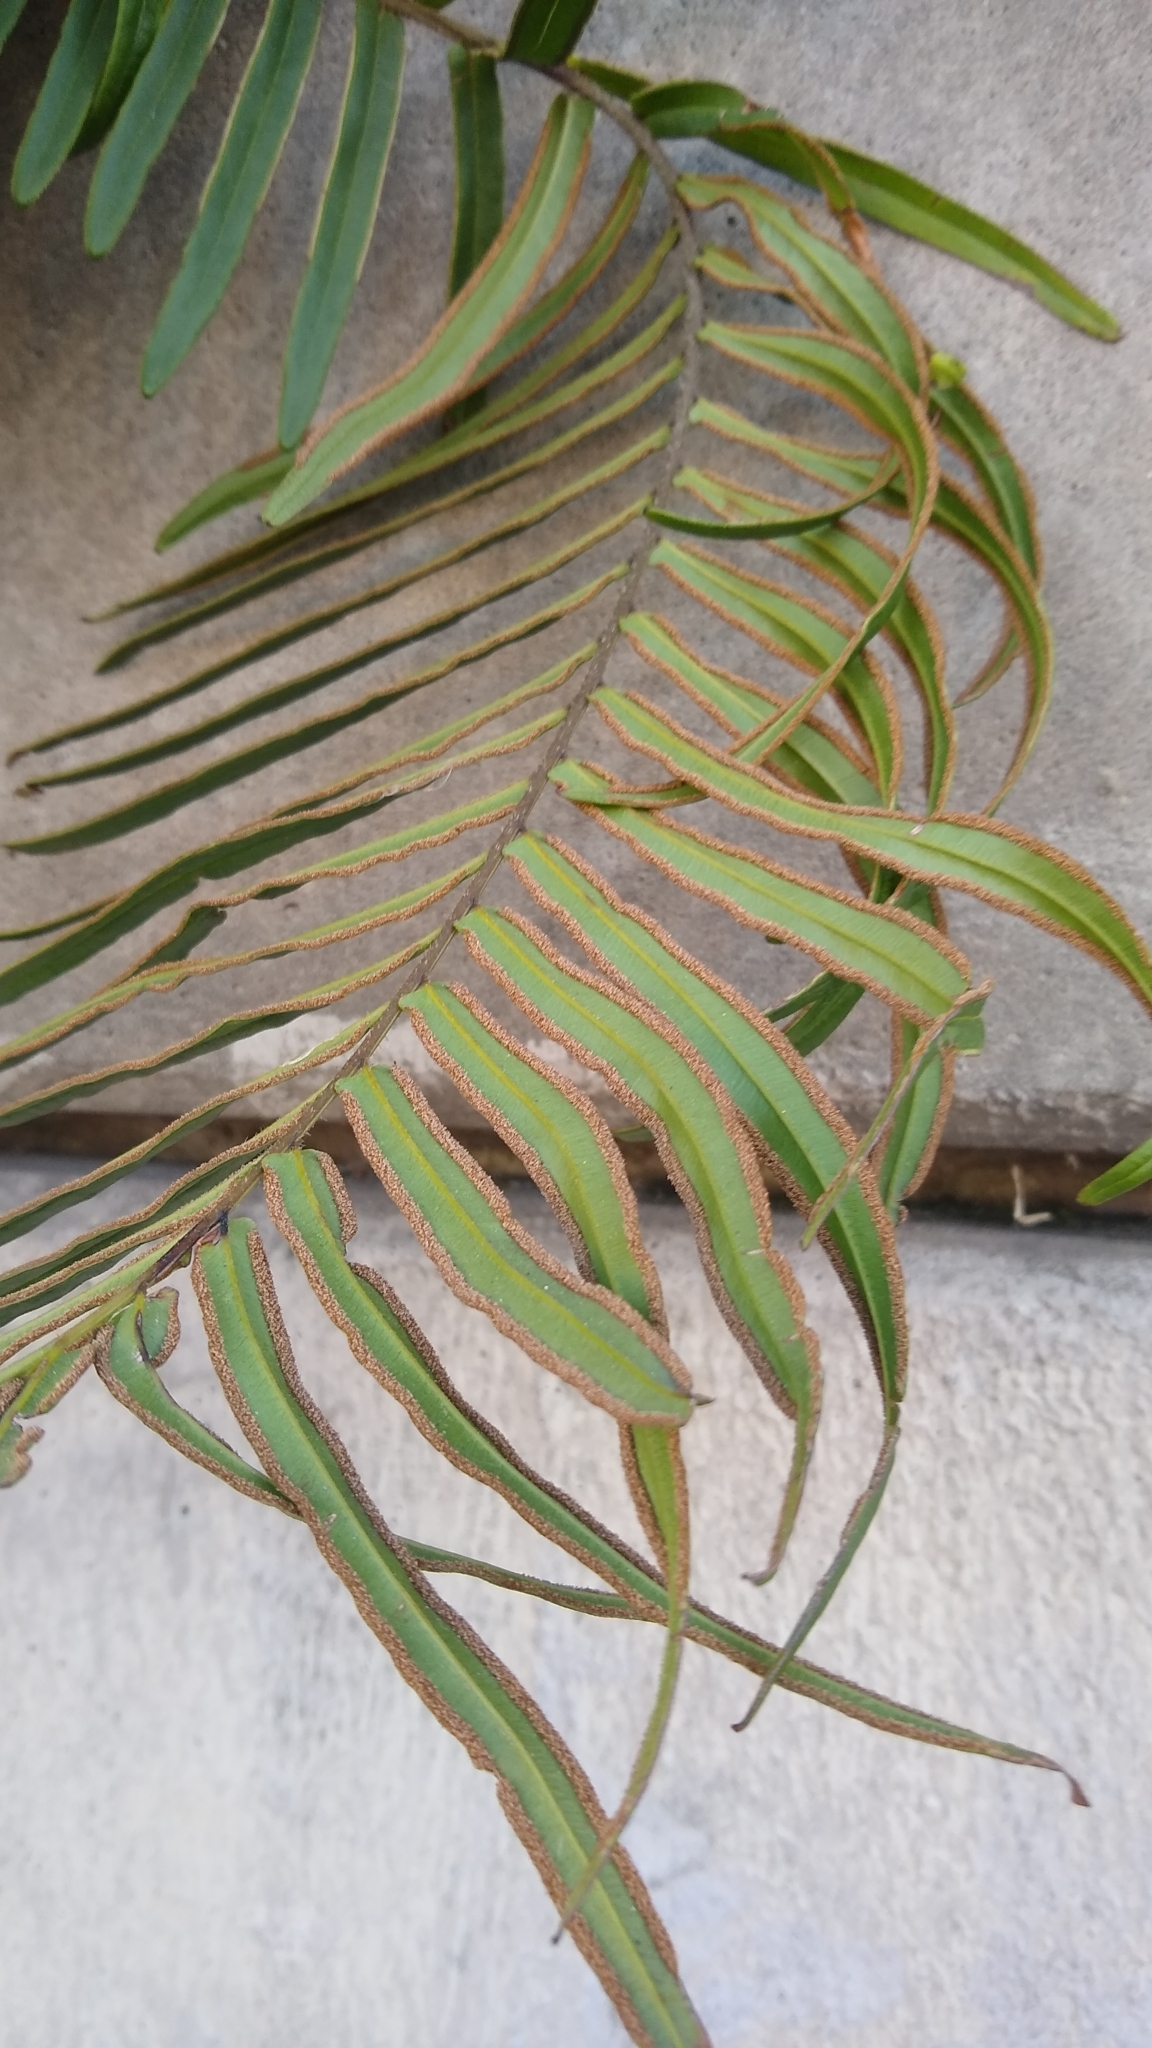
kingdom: Plantae
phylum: Tracheophyta
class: Polypodiopsida
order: Polypodiales
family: Pteridaceae
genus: Pteris
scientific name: Pteris vittata
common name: Ladder brake
